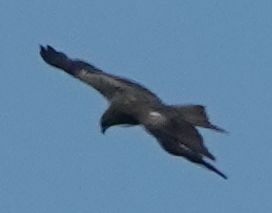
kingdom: Animalia
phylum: Chordata
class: Aves
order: Accipitriformes
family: Accipitridae
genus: Milvus
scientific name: Milvus migrans
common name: Black kite
